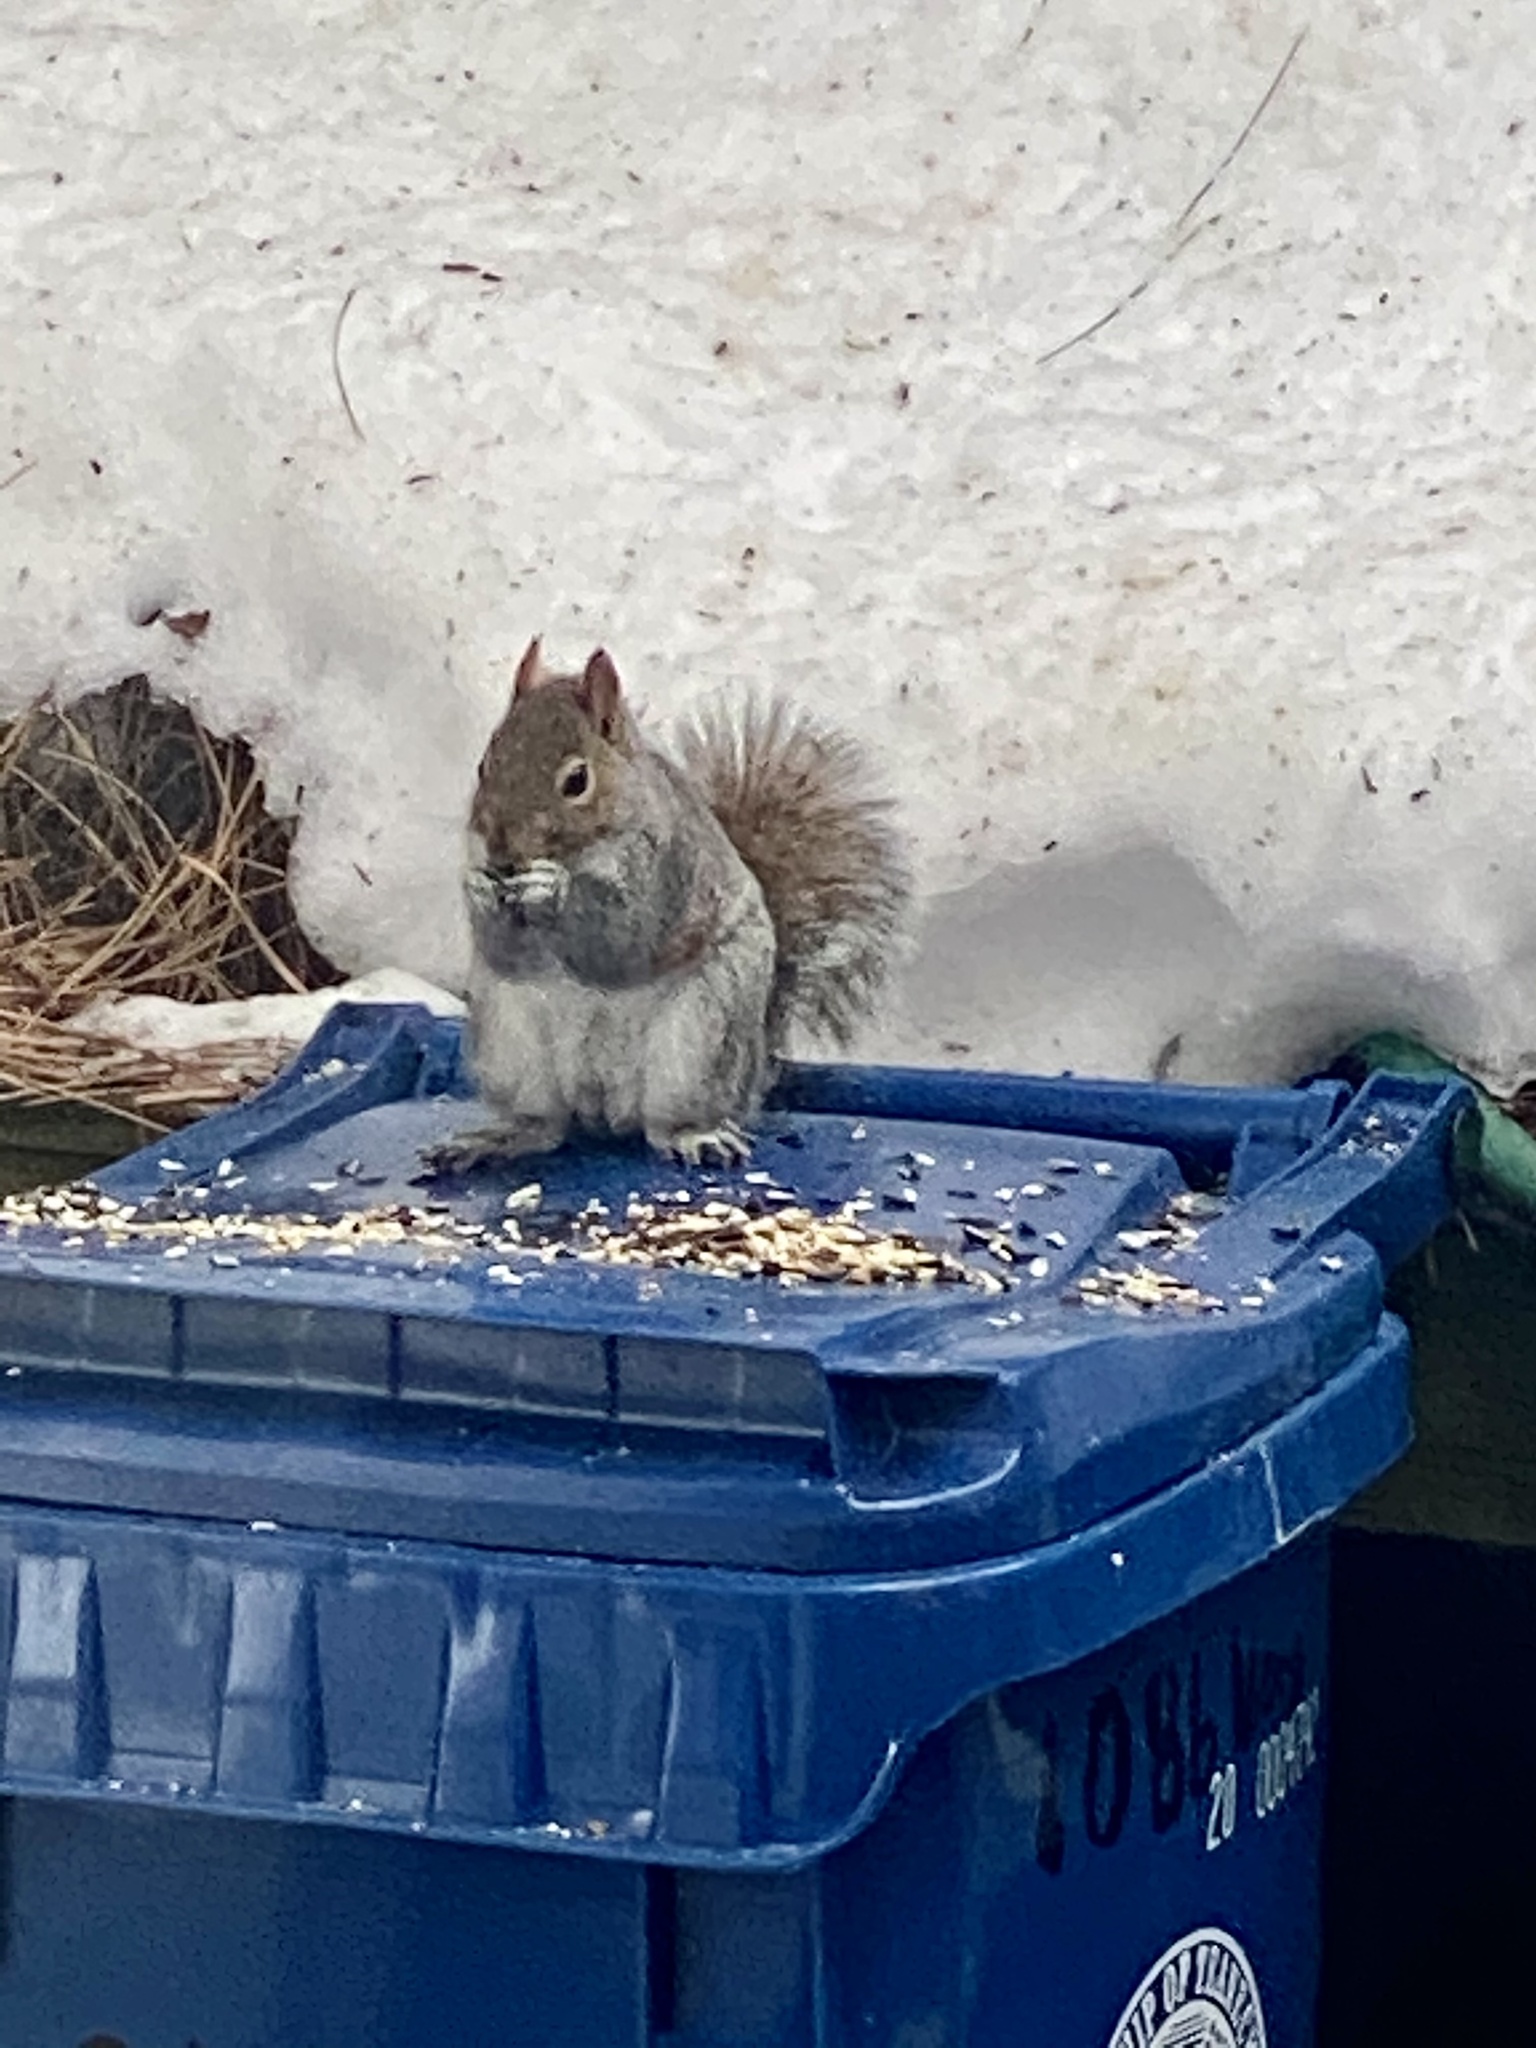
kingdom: Animalia
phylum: Chordata
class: Mammalia
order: Rodentia
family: Sciuridae
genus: Sciurus
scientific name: Sciurus carolinensis
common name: Eastern gray squirrel
